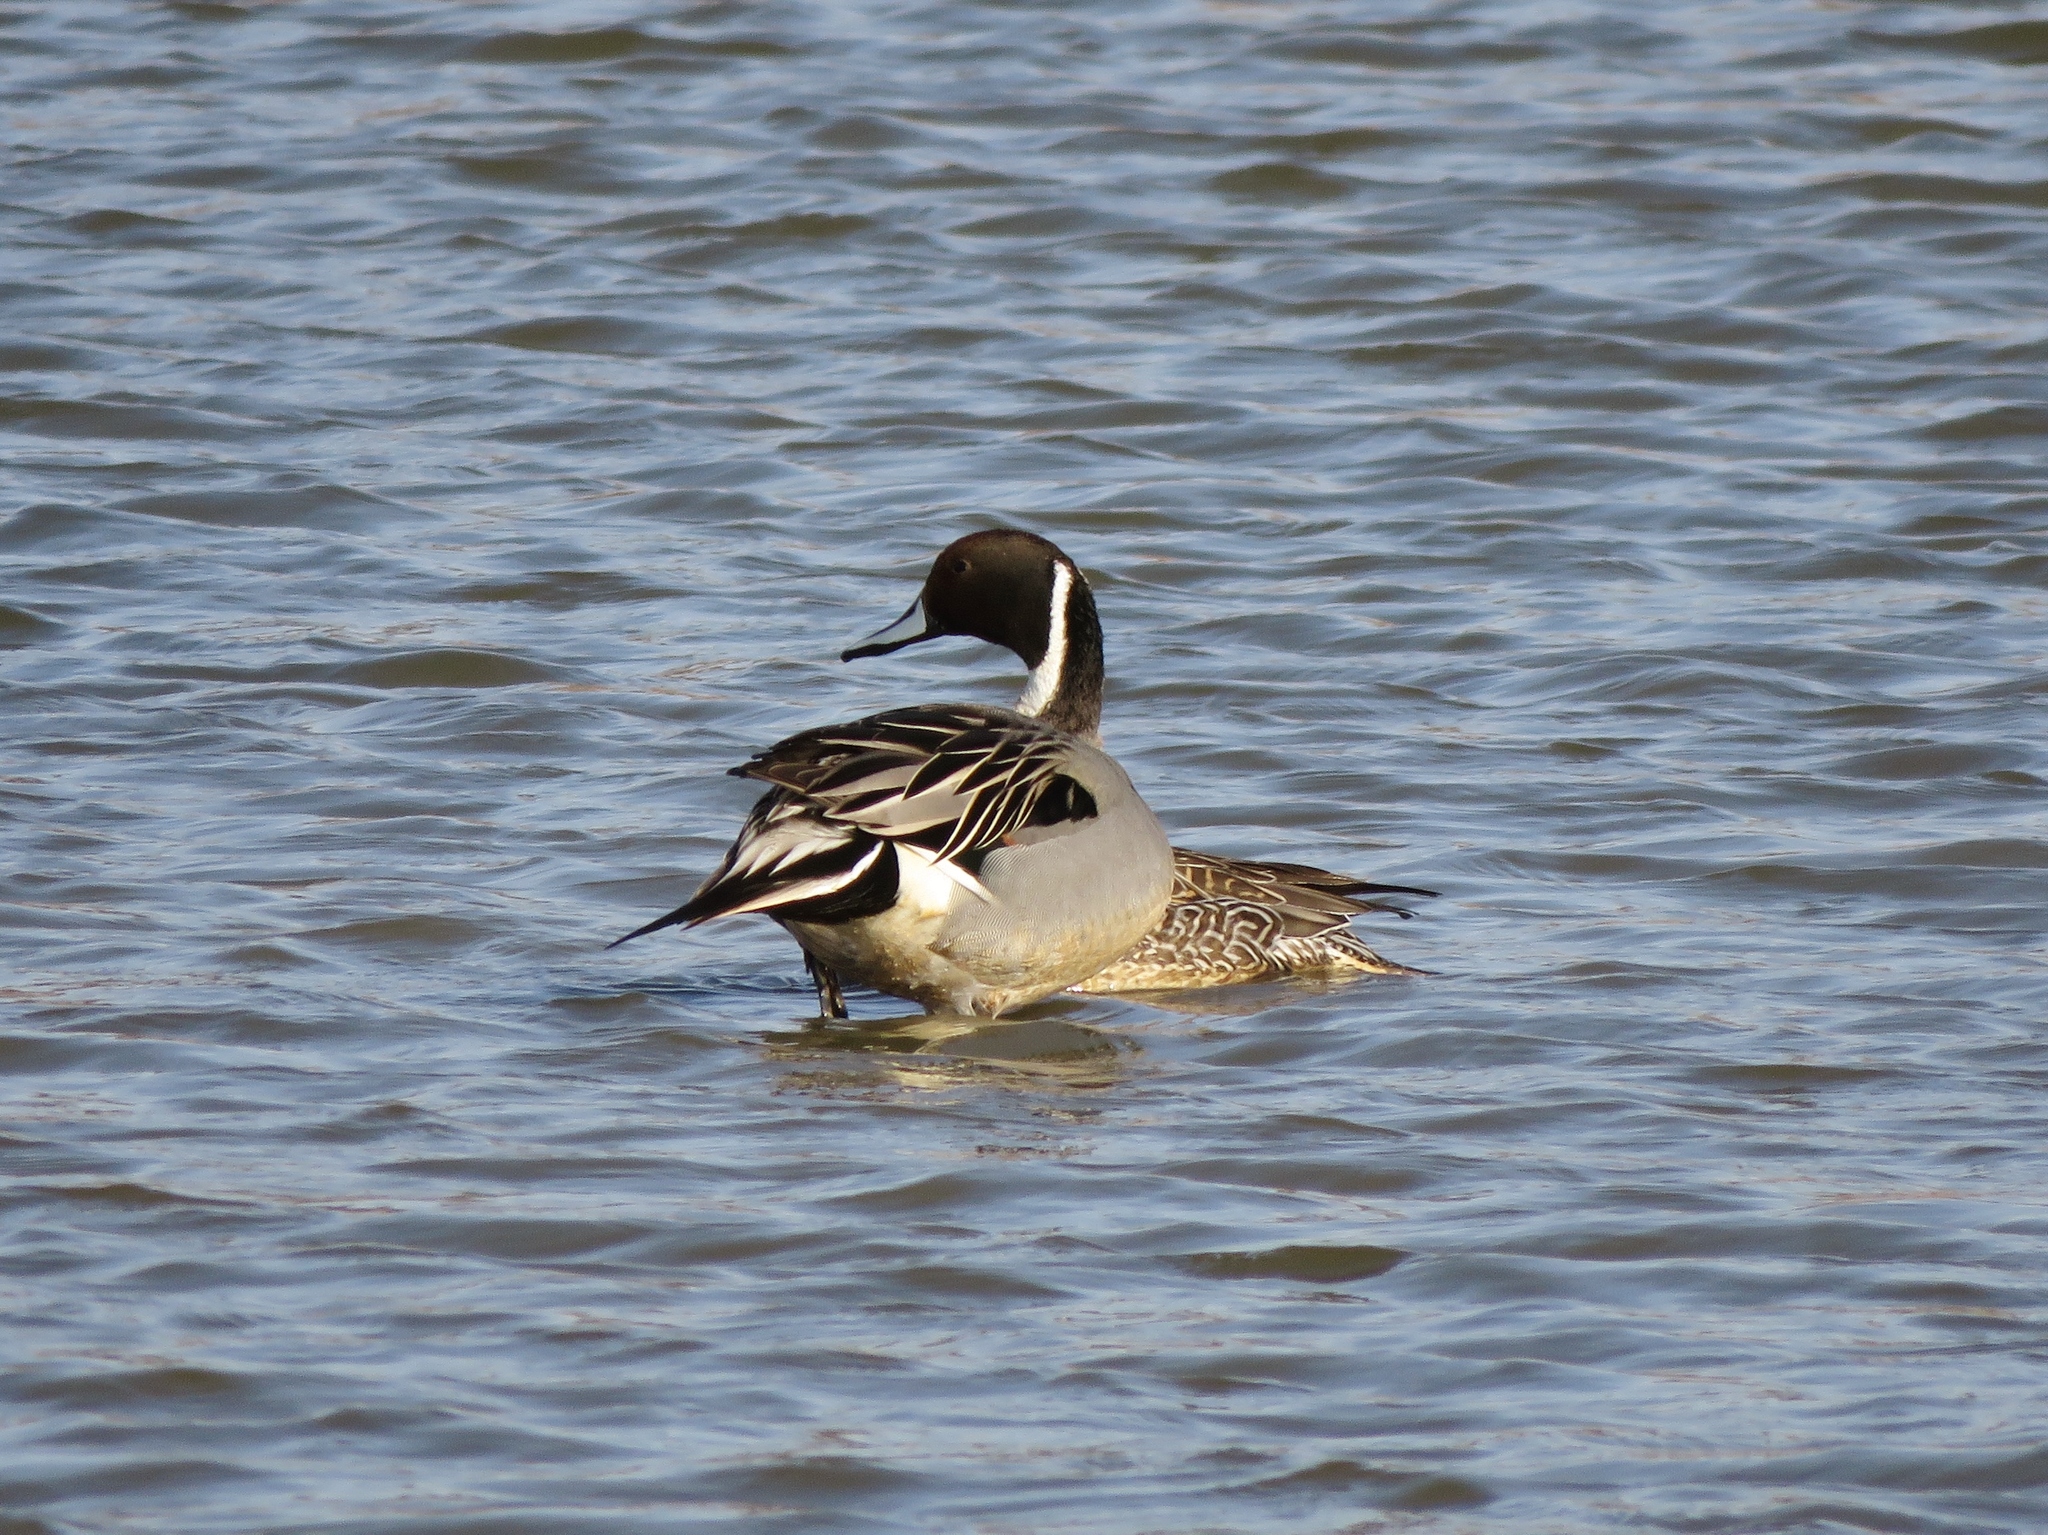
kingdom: Animalia
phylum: Chordata
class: Aves
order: Anseriformes
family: Anatidae
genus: Anas
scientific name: Anas acuta
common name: Northern pintail
